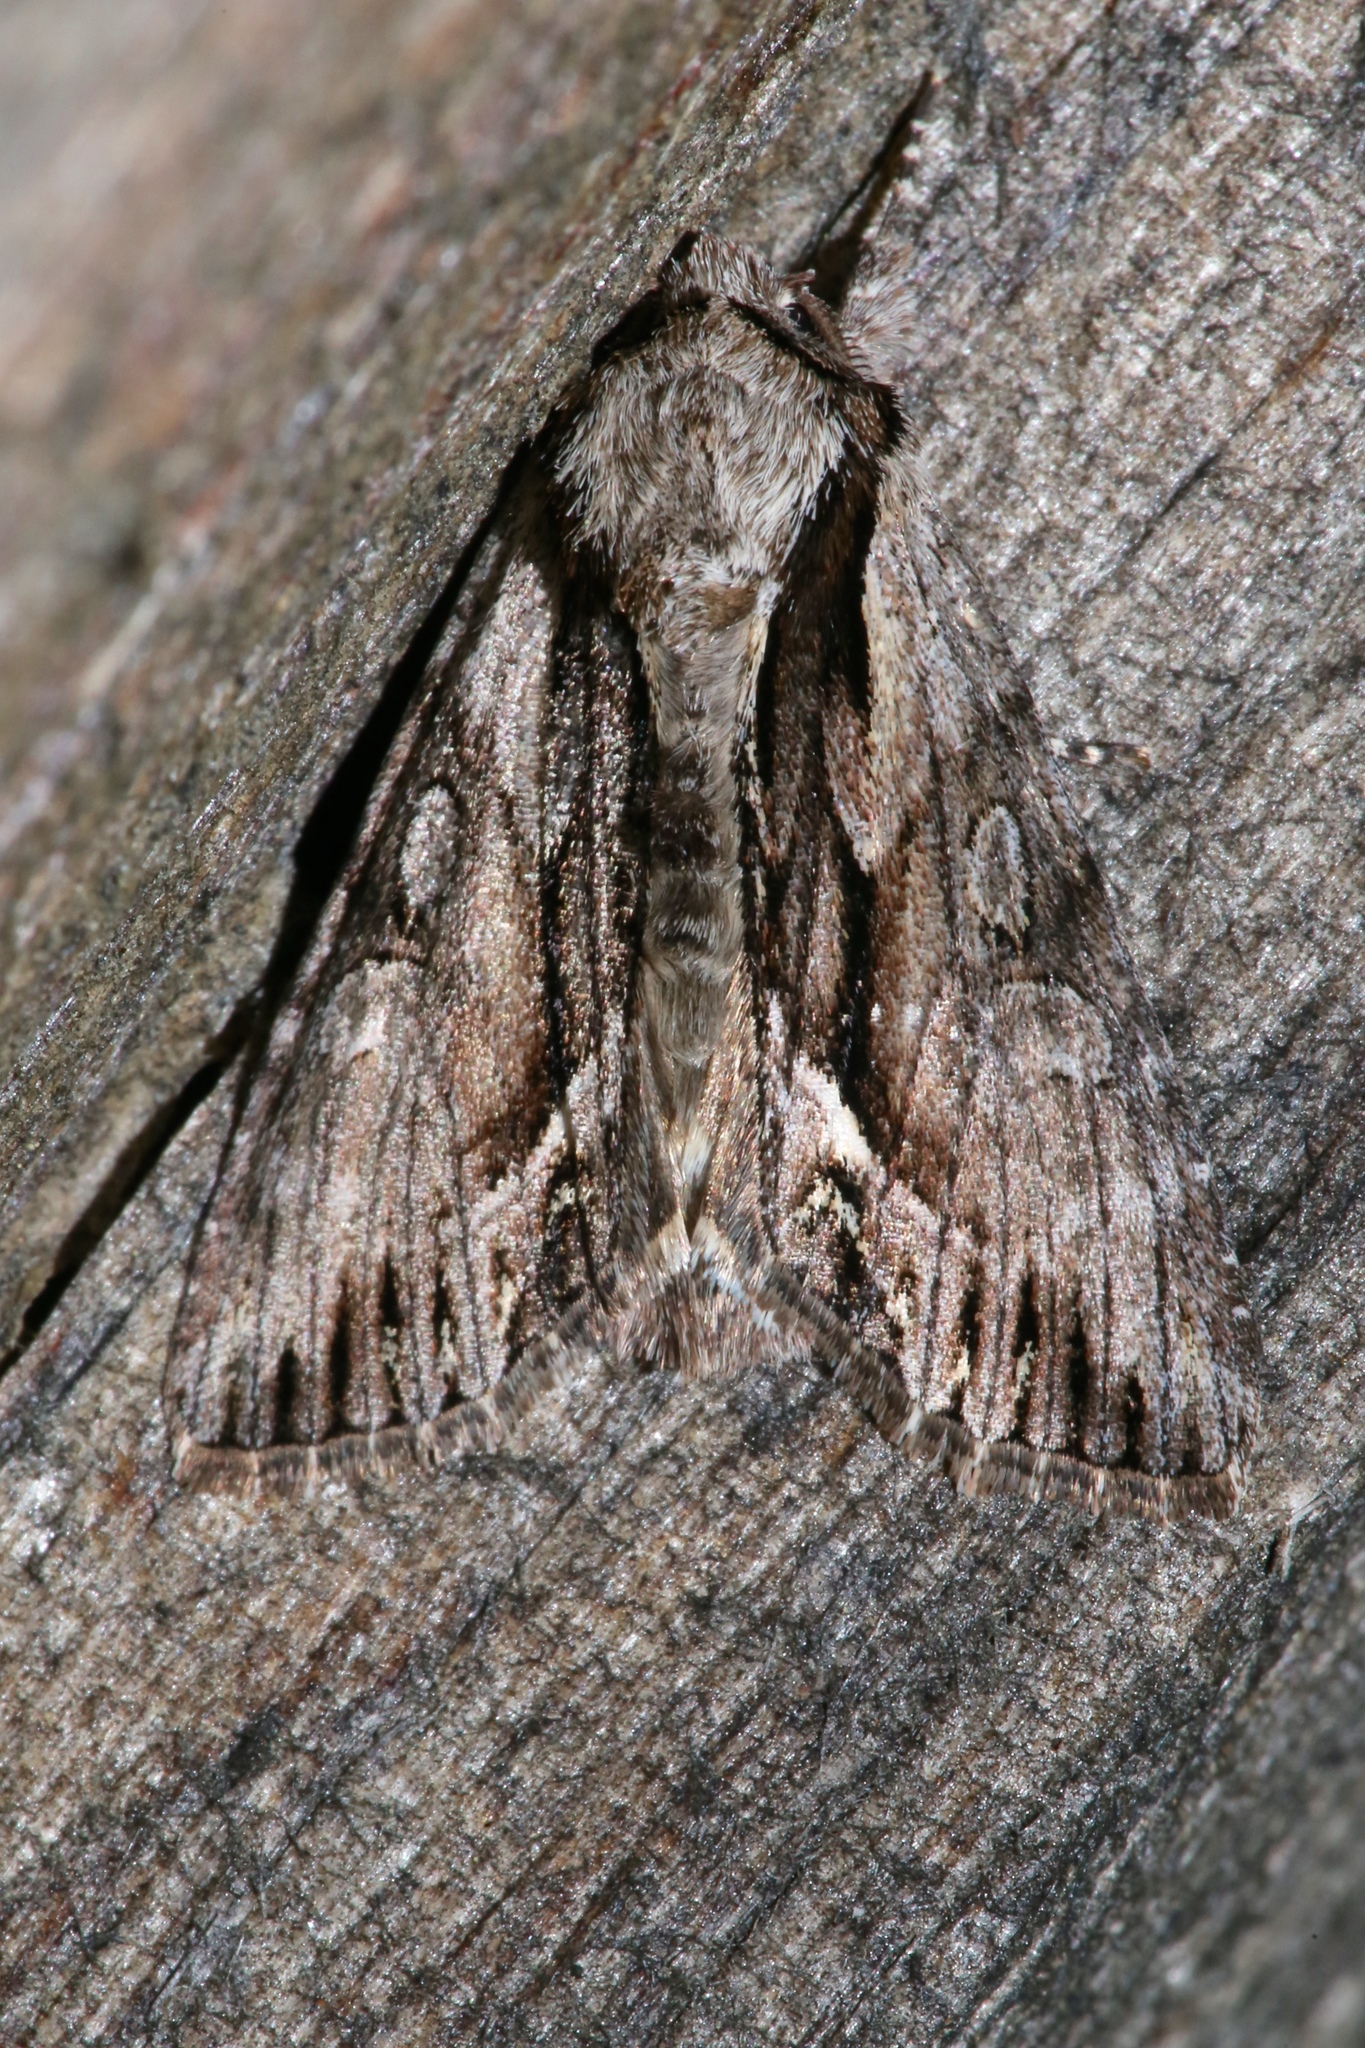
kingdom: Animalia
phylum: Arthropoda
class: Insecta
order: Lepidoptera
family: Noctuidae
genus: Hyppa
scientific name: Hyppa xylinoides
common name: Common hyppa moth
